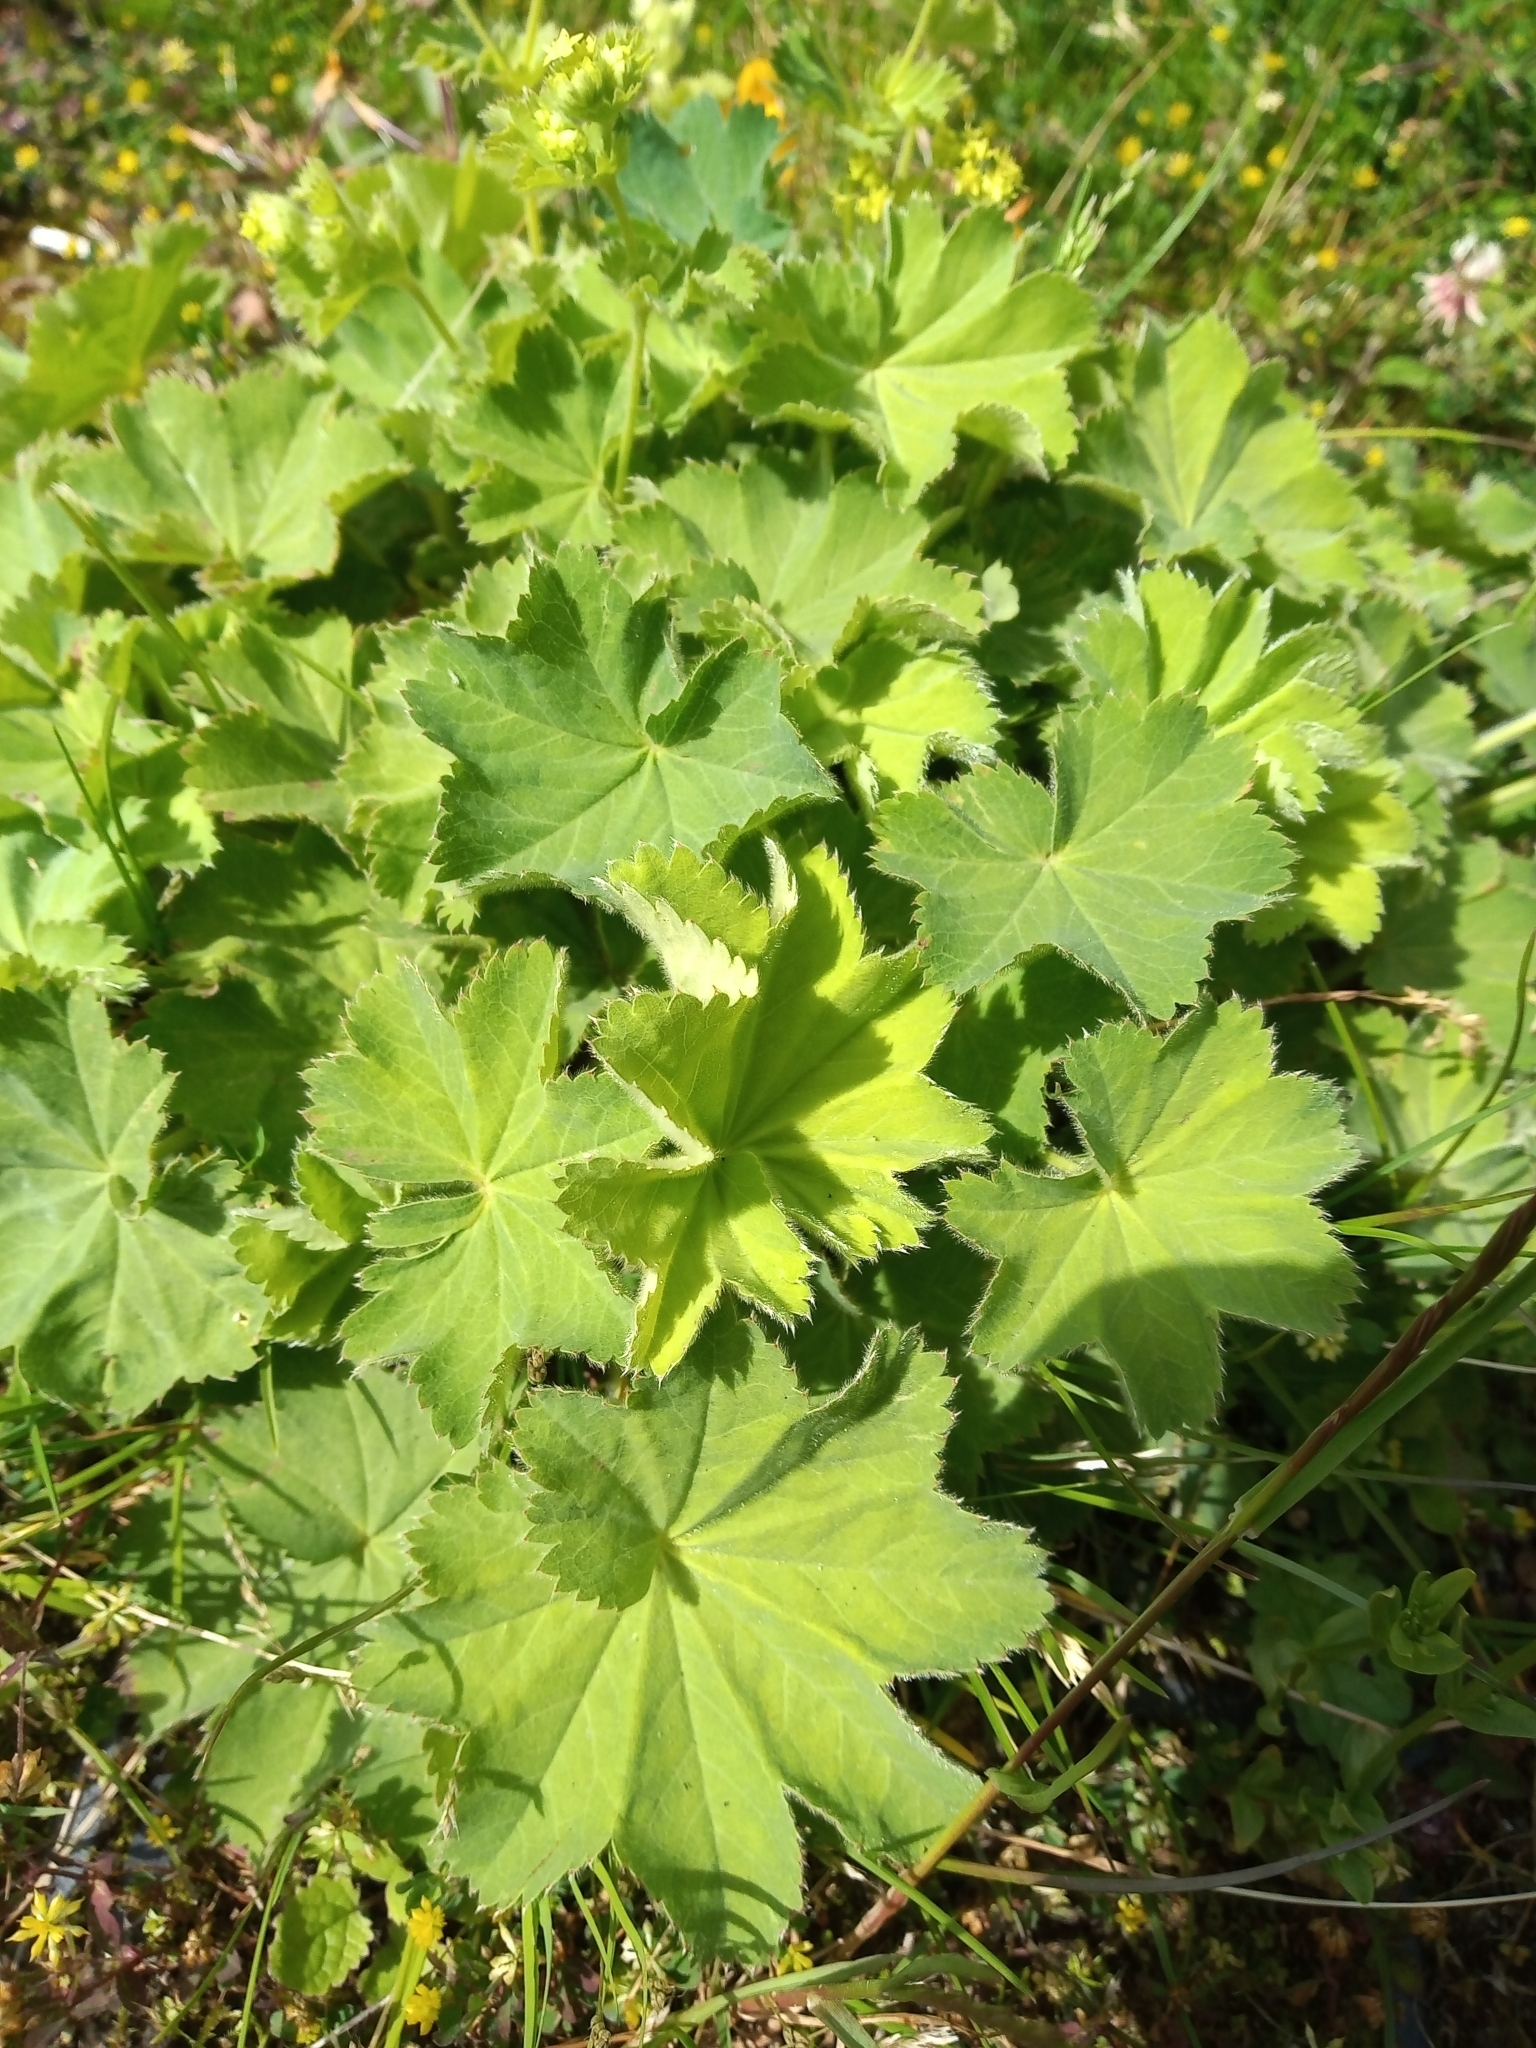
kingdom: Plantae
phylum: Tracheophyta
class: Magnoliopsida
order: Rosales
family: Rosaceae
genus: Alchemilla
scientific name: Alchemilla mollis
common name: Lady's-mantle
